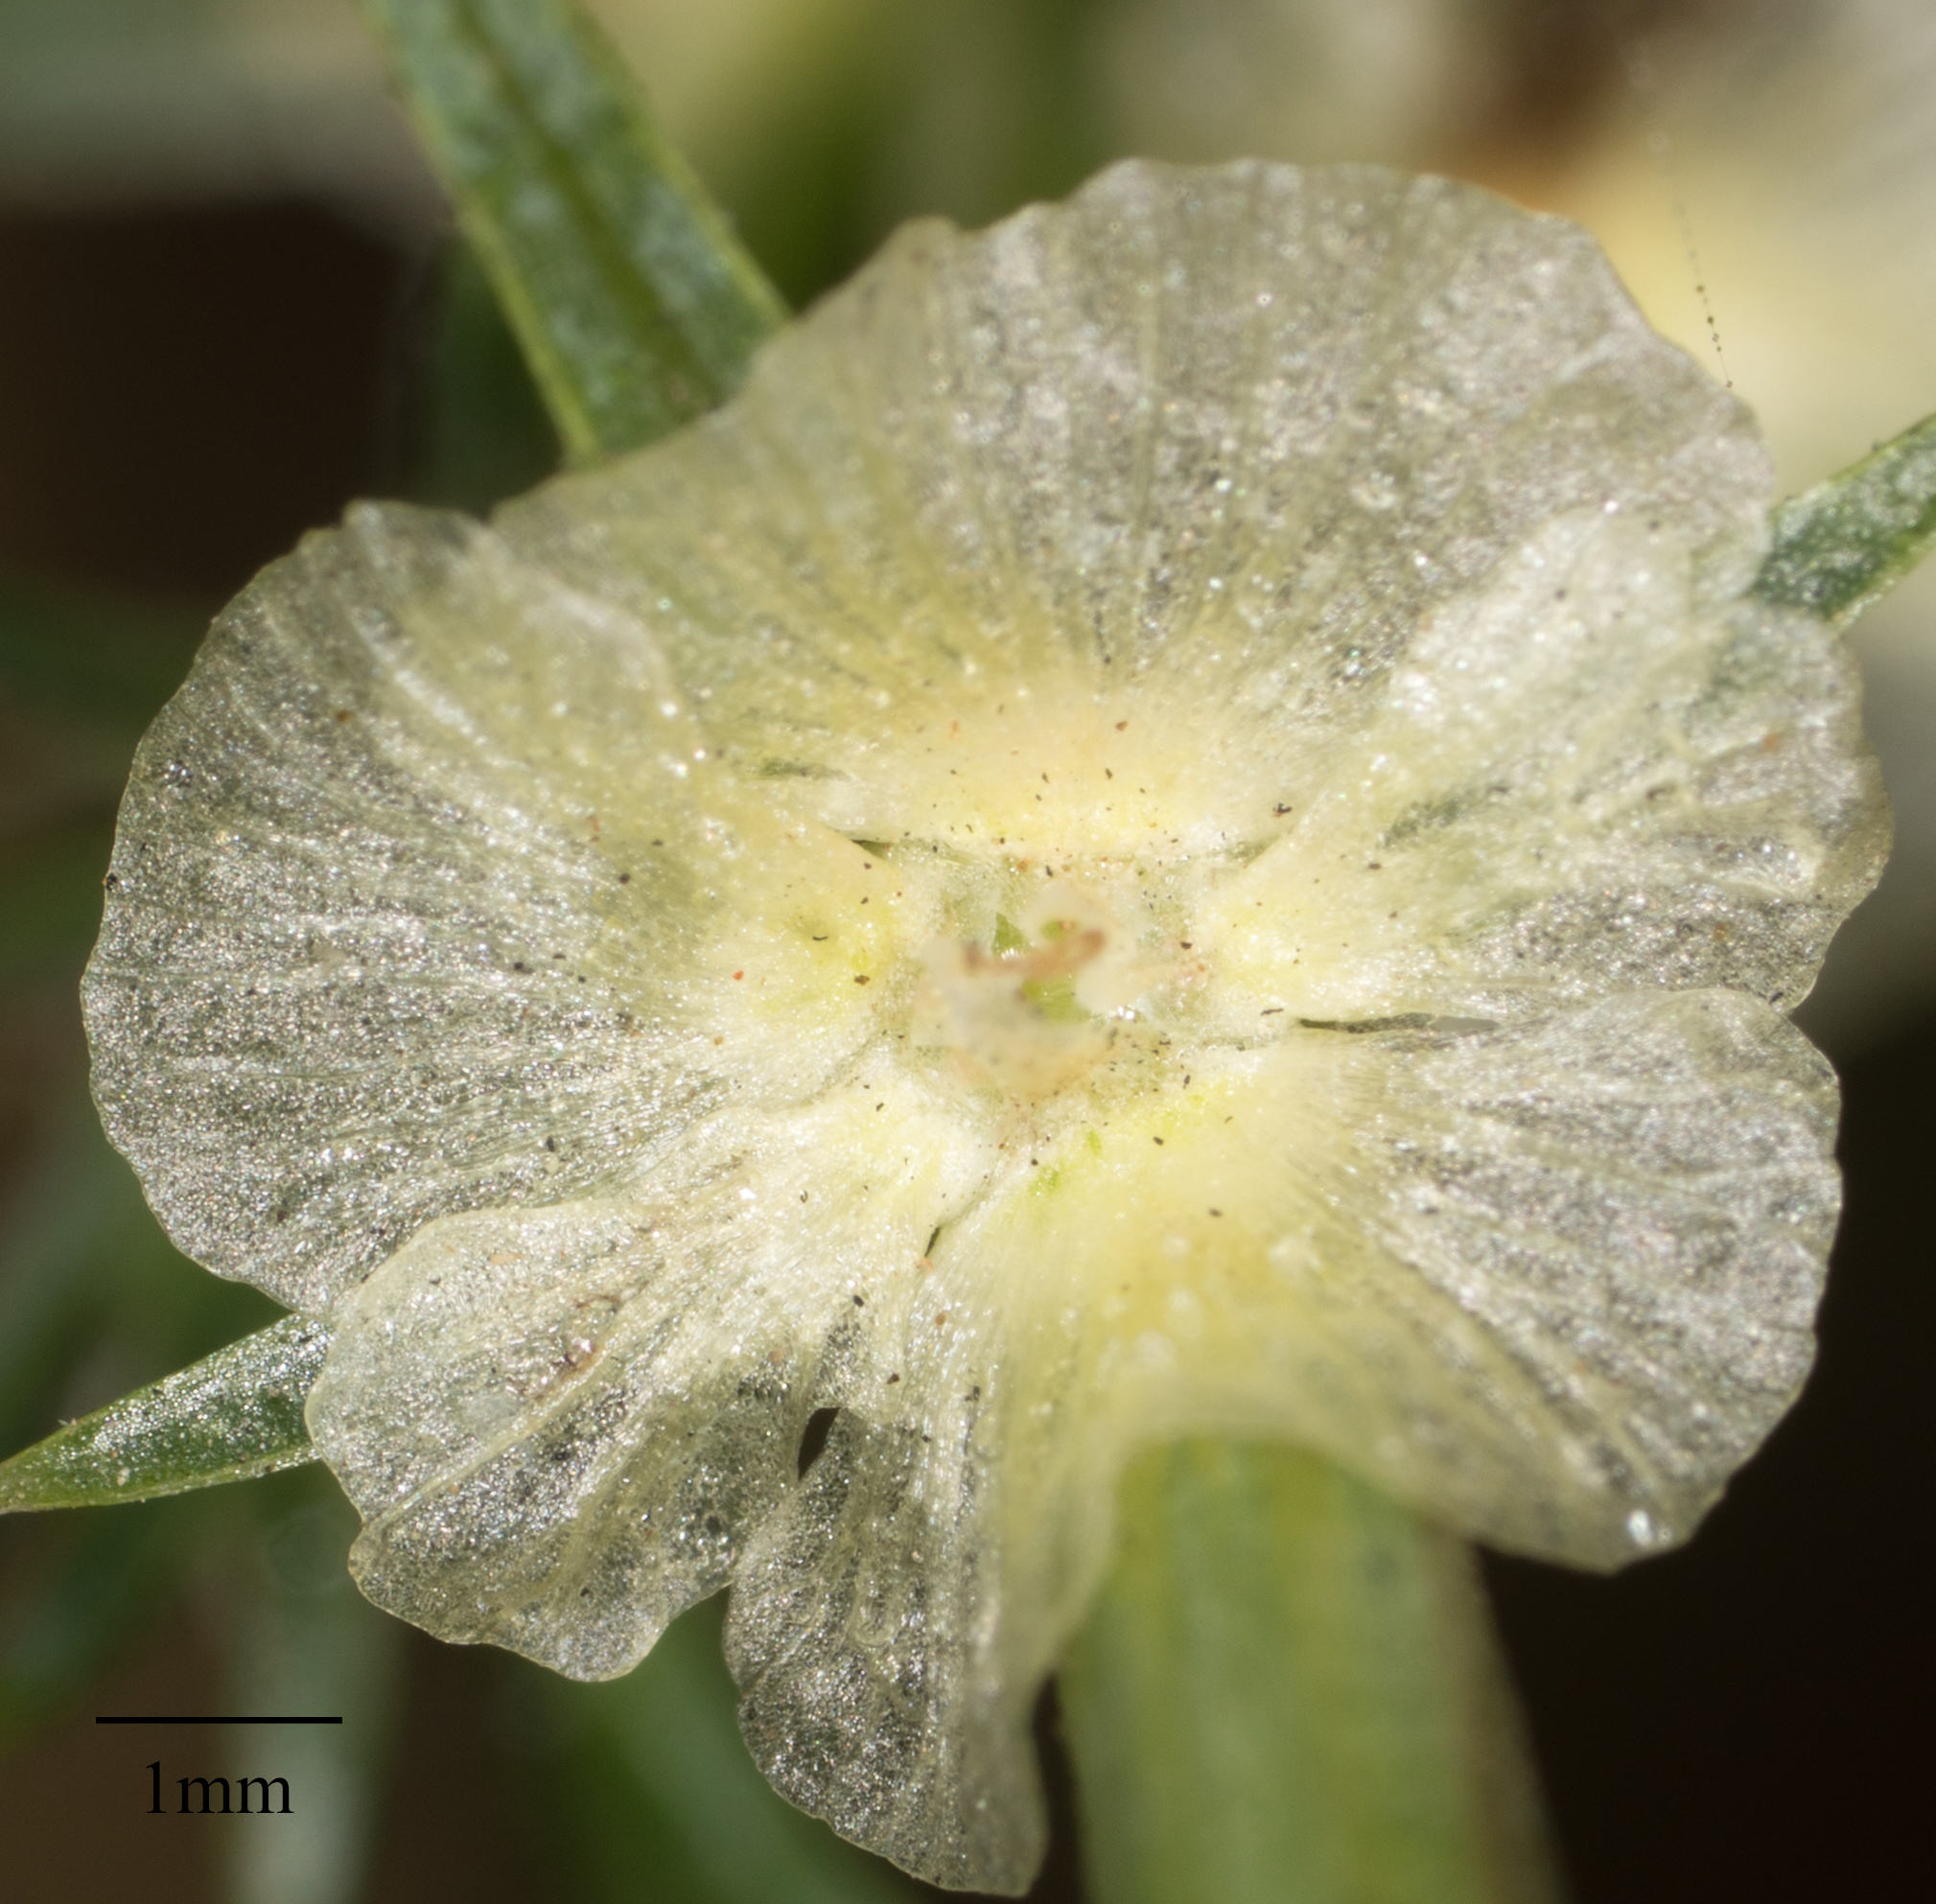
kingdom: Plantae
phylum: Tracheophyta
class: Magnoliopsida
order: Caryophyllales
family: Amaranthaceae
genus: Salsola
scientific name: Salsola australis
